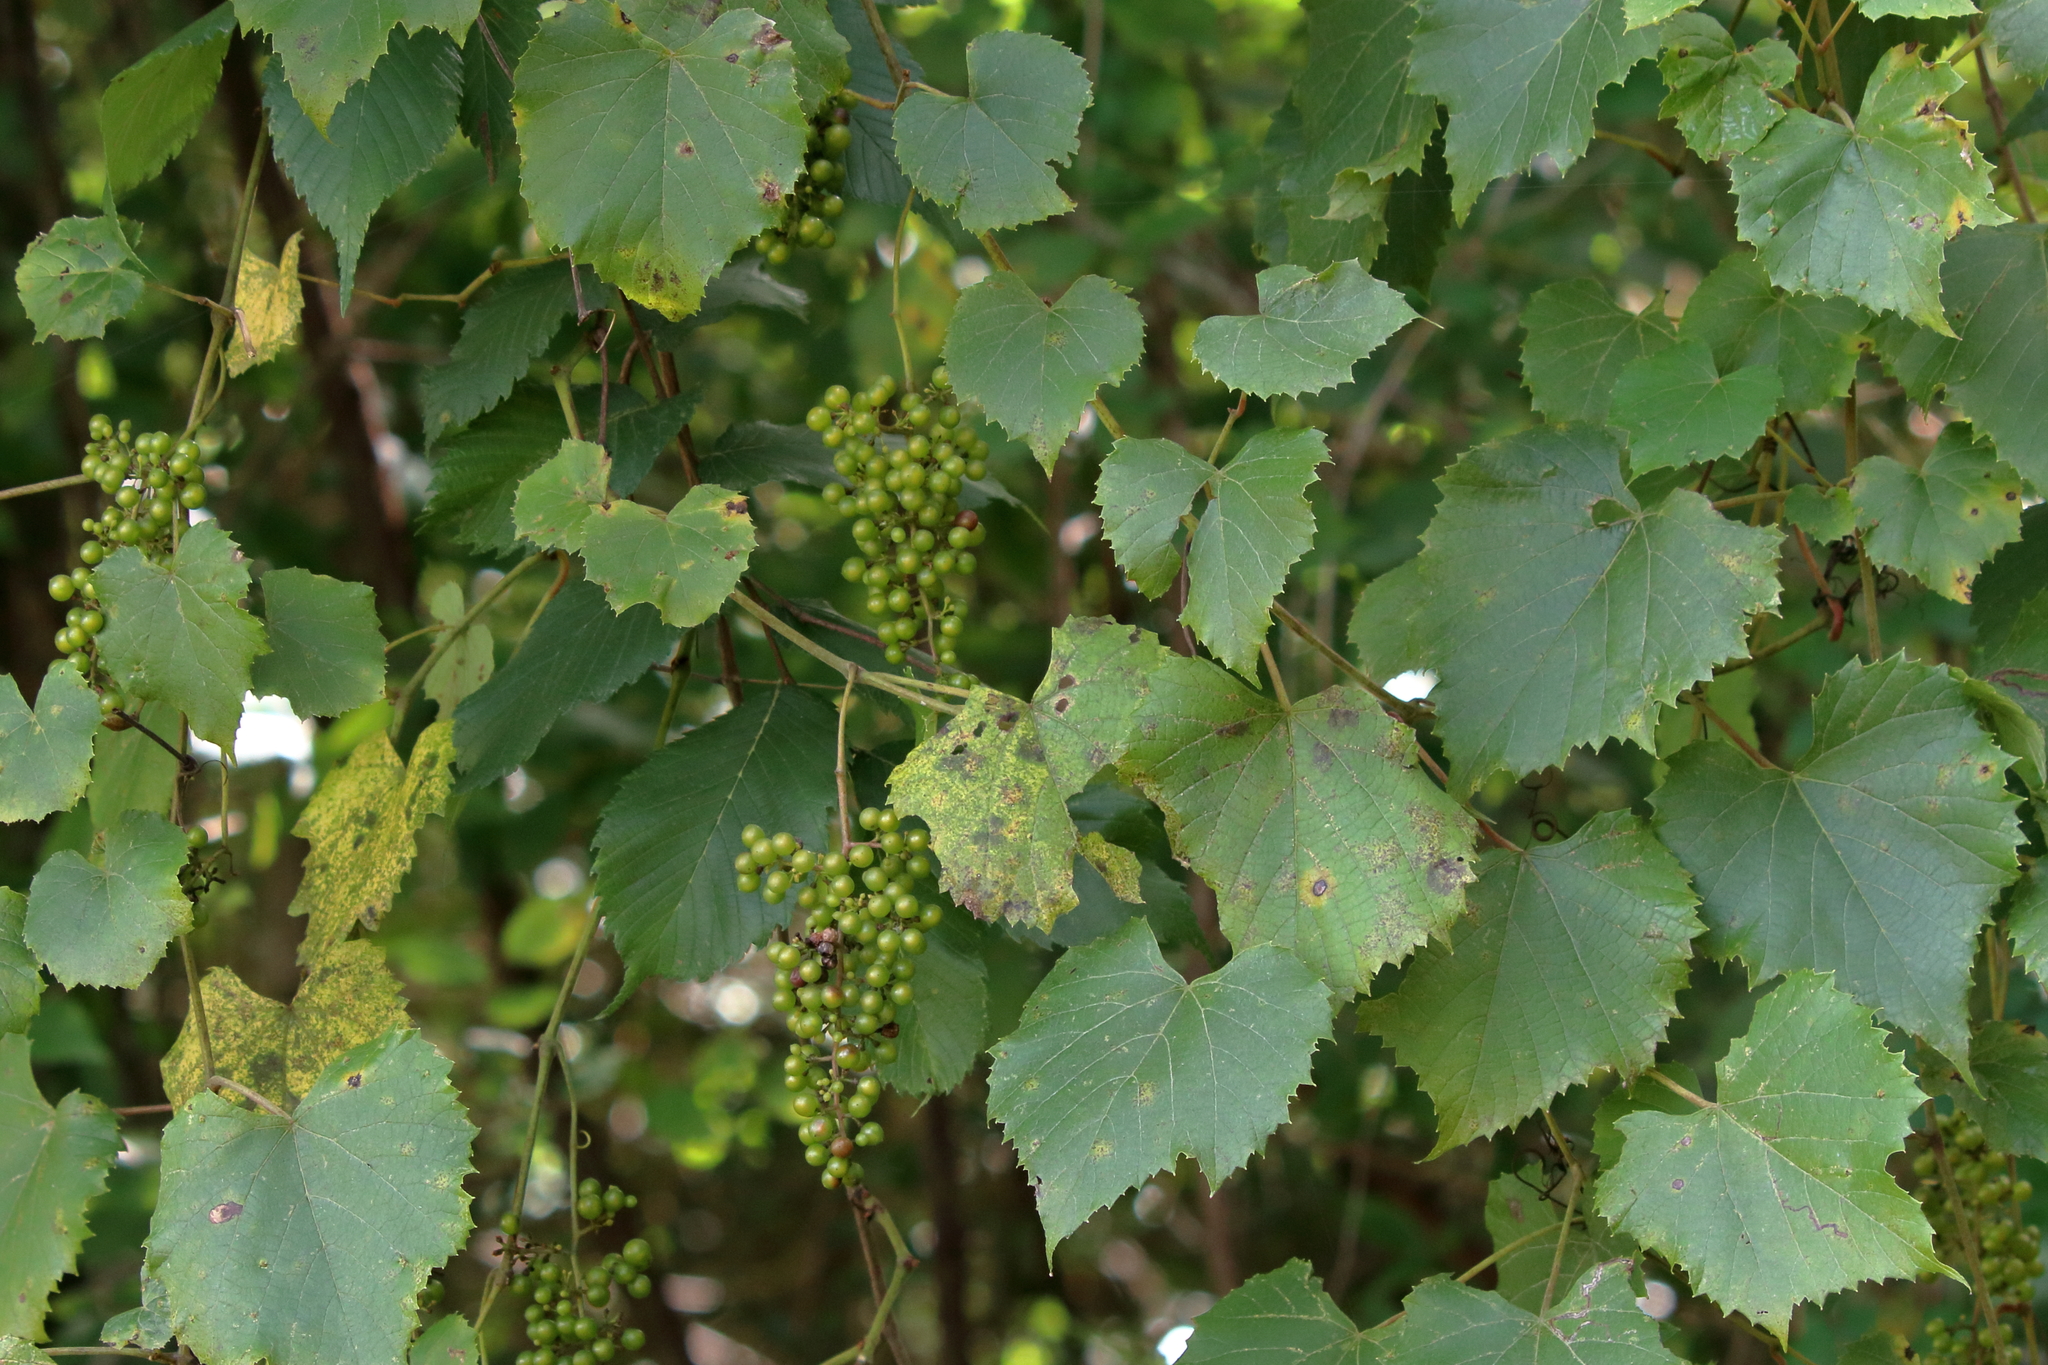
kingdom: Plantae
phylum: Tracheophyta
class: Magnoliopsida
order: Vitales
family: Vitaceae
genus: Vitis
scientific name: Vitis vulpina
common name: Frost grape
